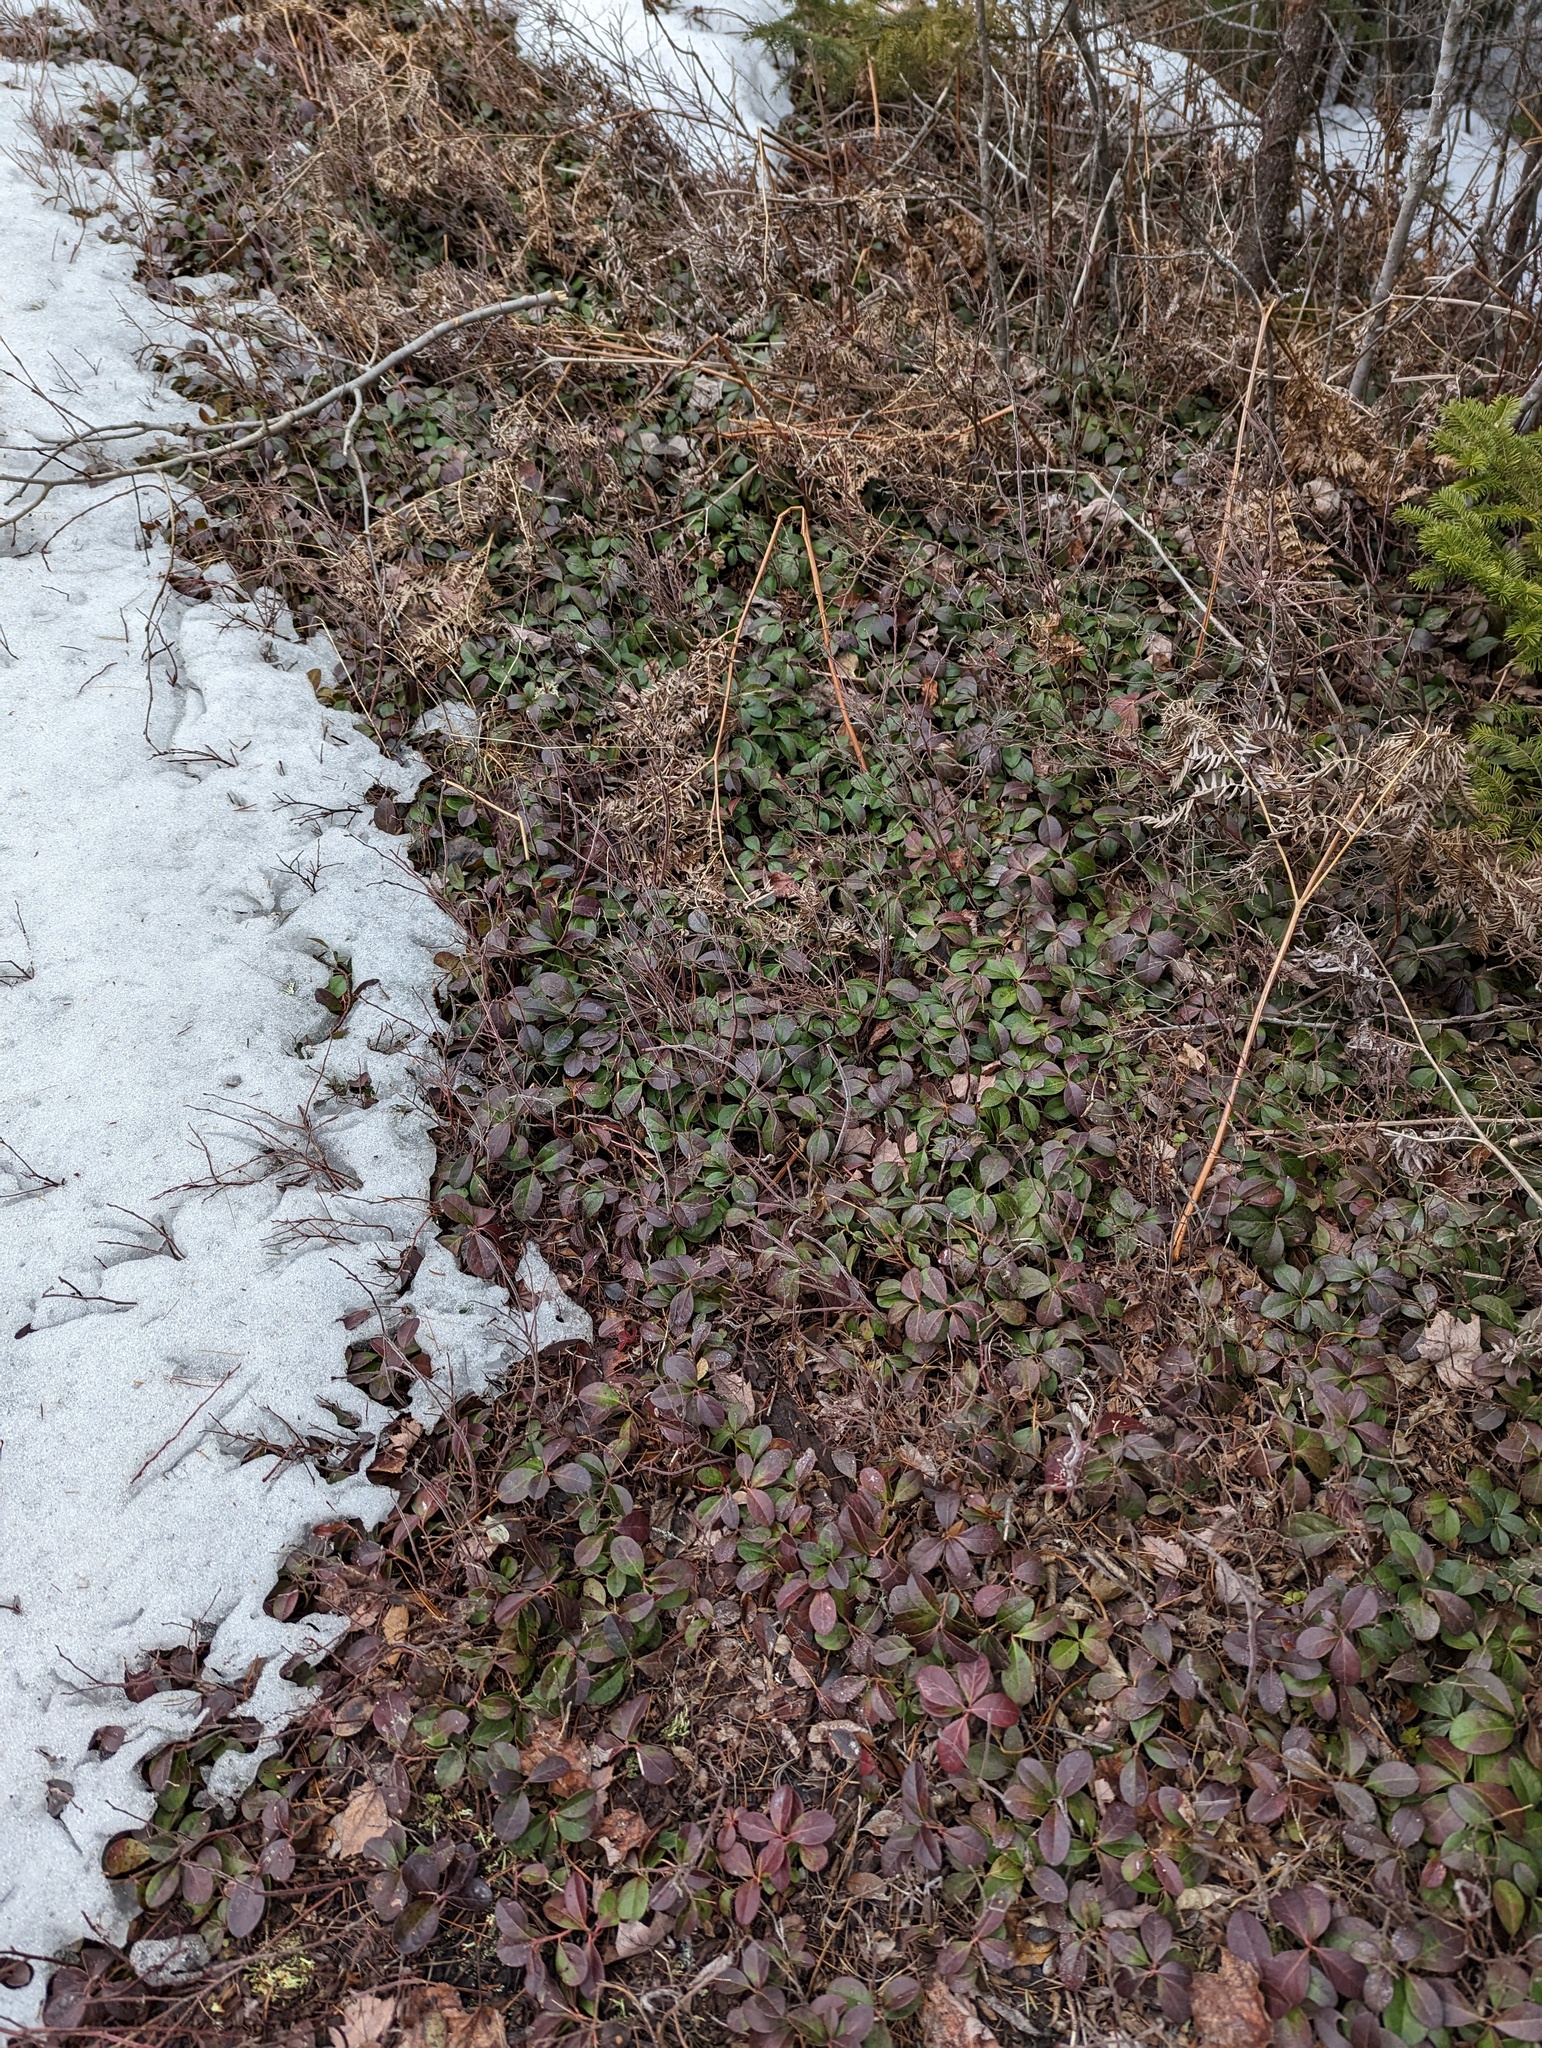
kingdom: Plantae
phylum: Tracheophyta
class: Magnoliopsida
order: Ericales
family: Ericaceae
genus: Gaultheria
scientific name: Gaultheria procumbens
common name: Checkerberry
